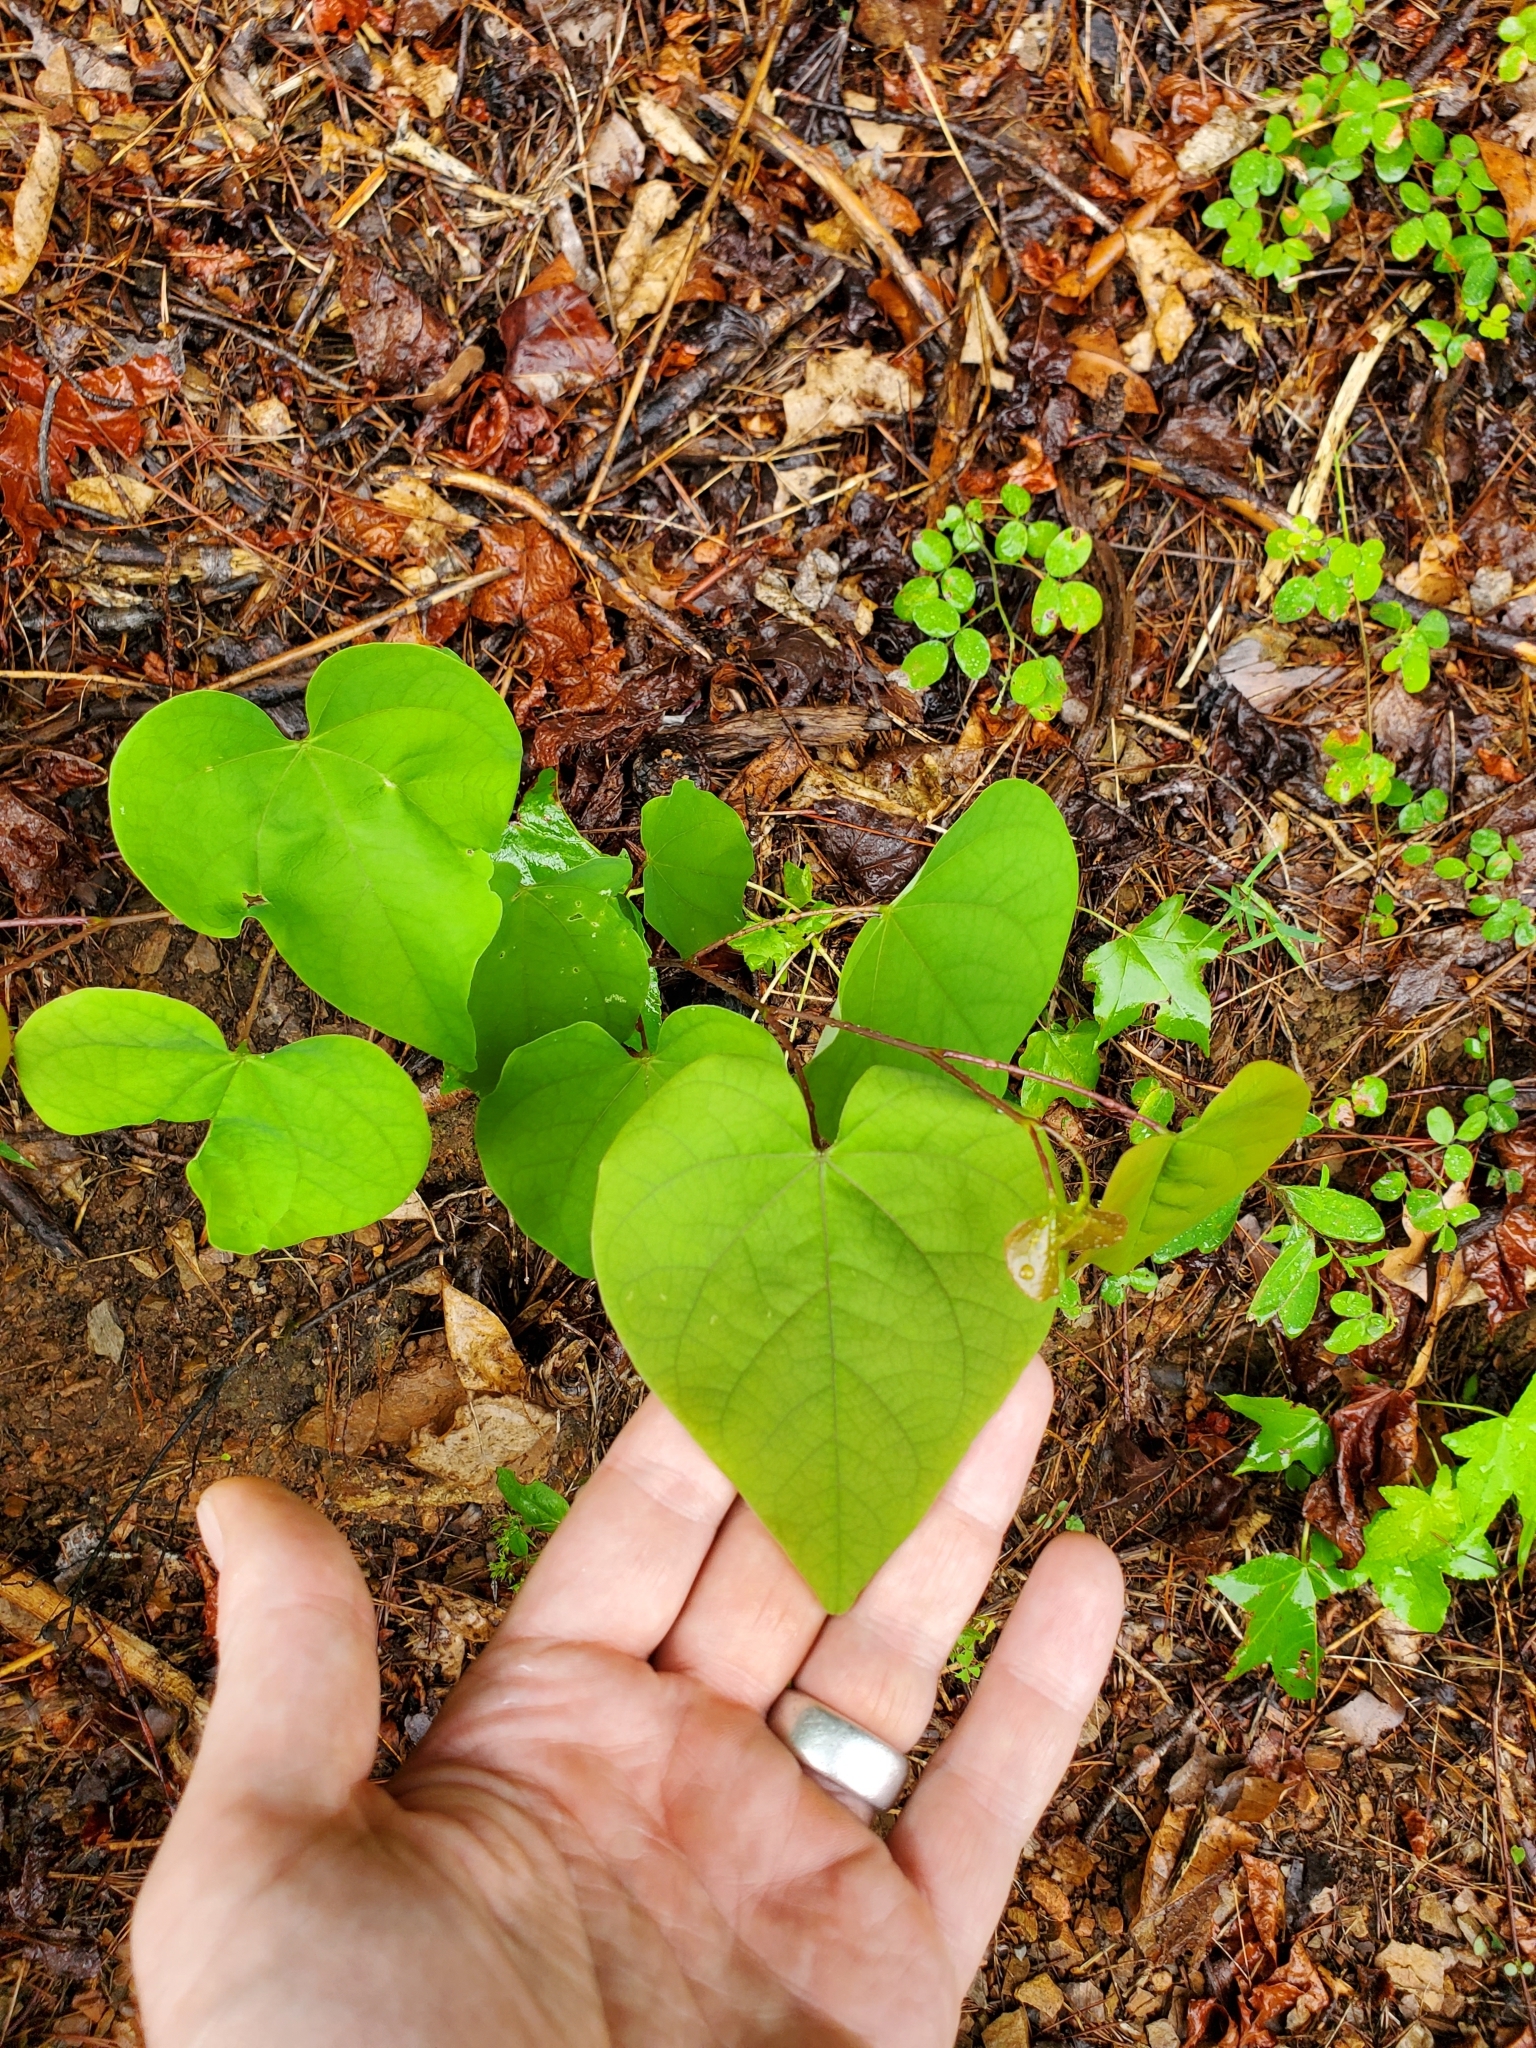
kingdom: Plantae
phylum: Tracheophyta
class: Magnoliopsida
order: Fabales
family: Fabaceae
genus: Cercis
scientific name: Cercis canadensis
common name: Eastern redbud
